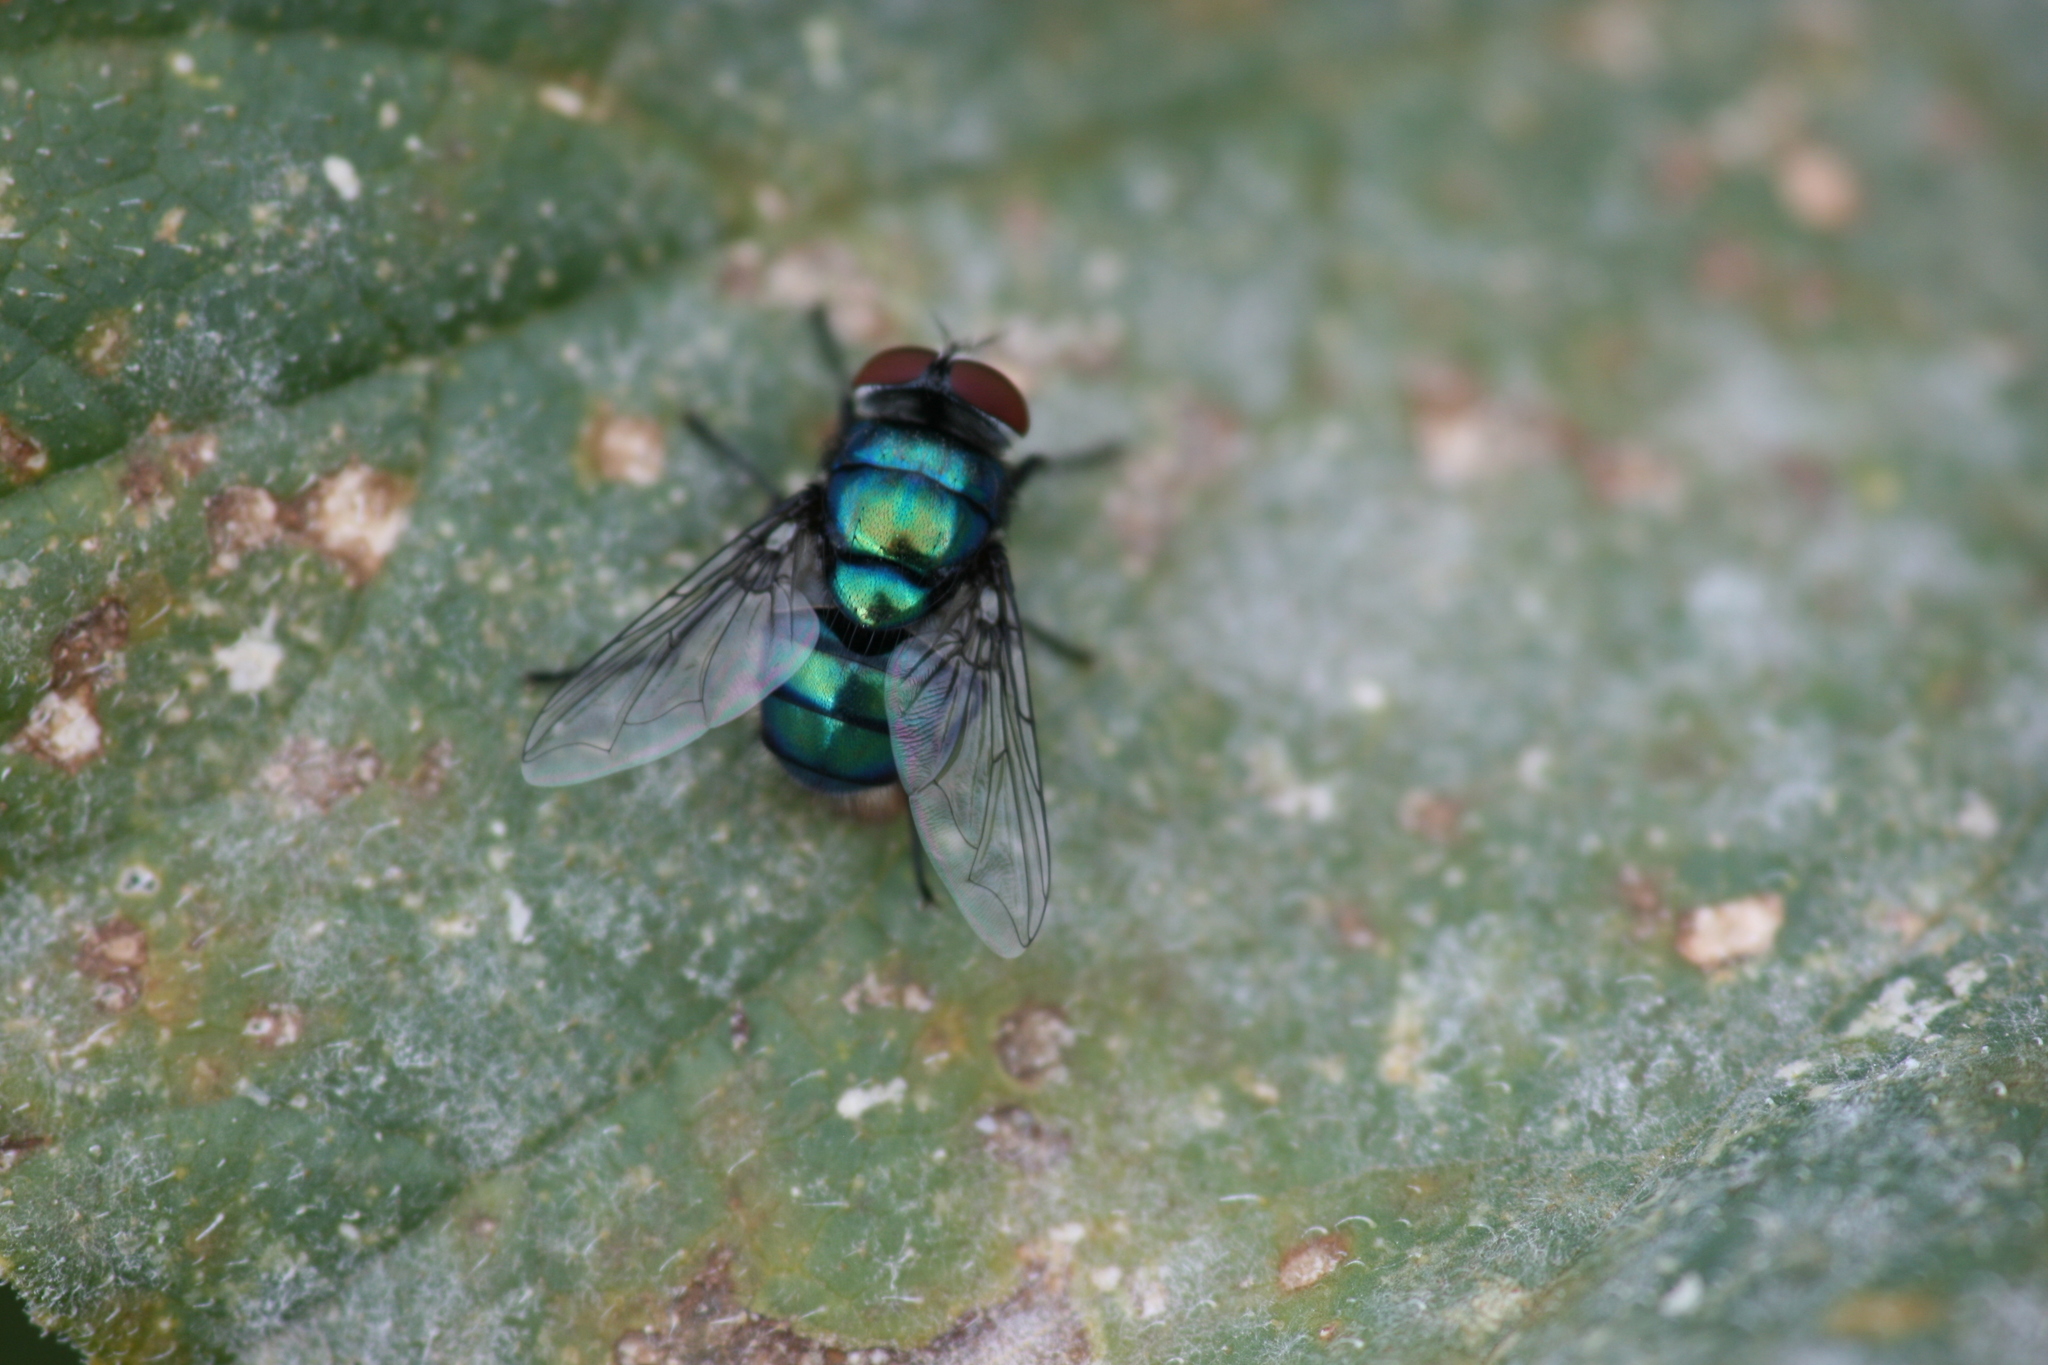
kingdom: Animalia
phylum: Arthropoda
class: Insecta
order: Diptera
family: Calliphoridae
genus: Chrysomya
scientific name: Chrysomya albiceps
